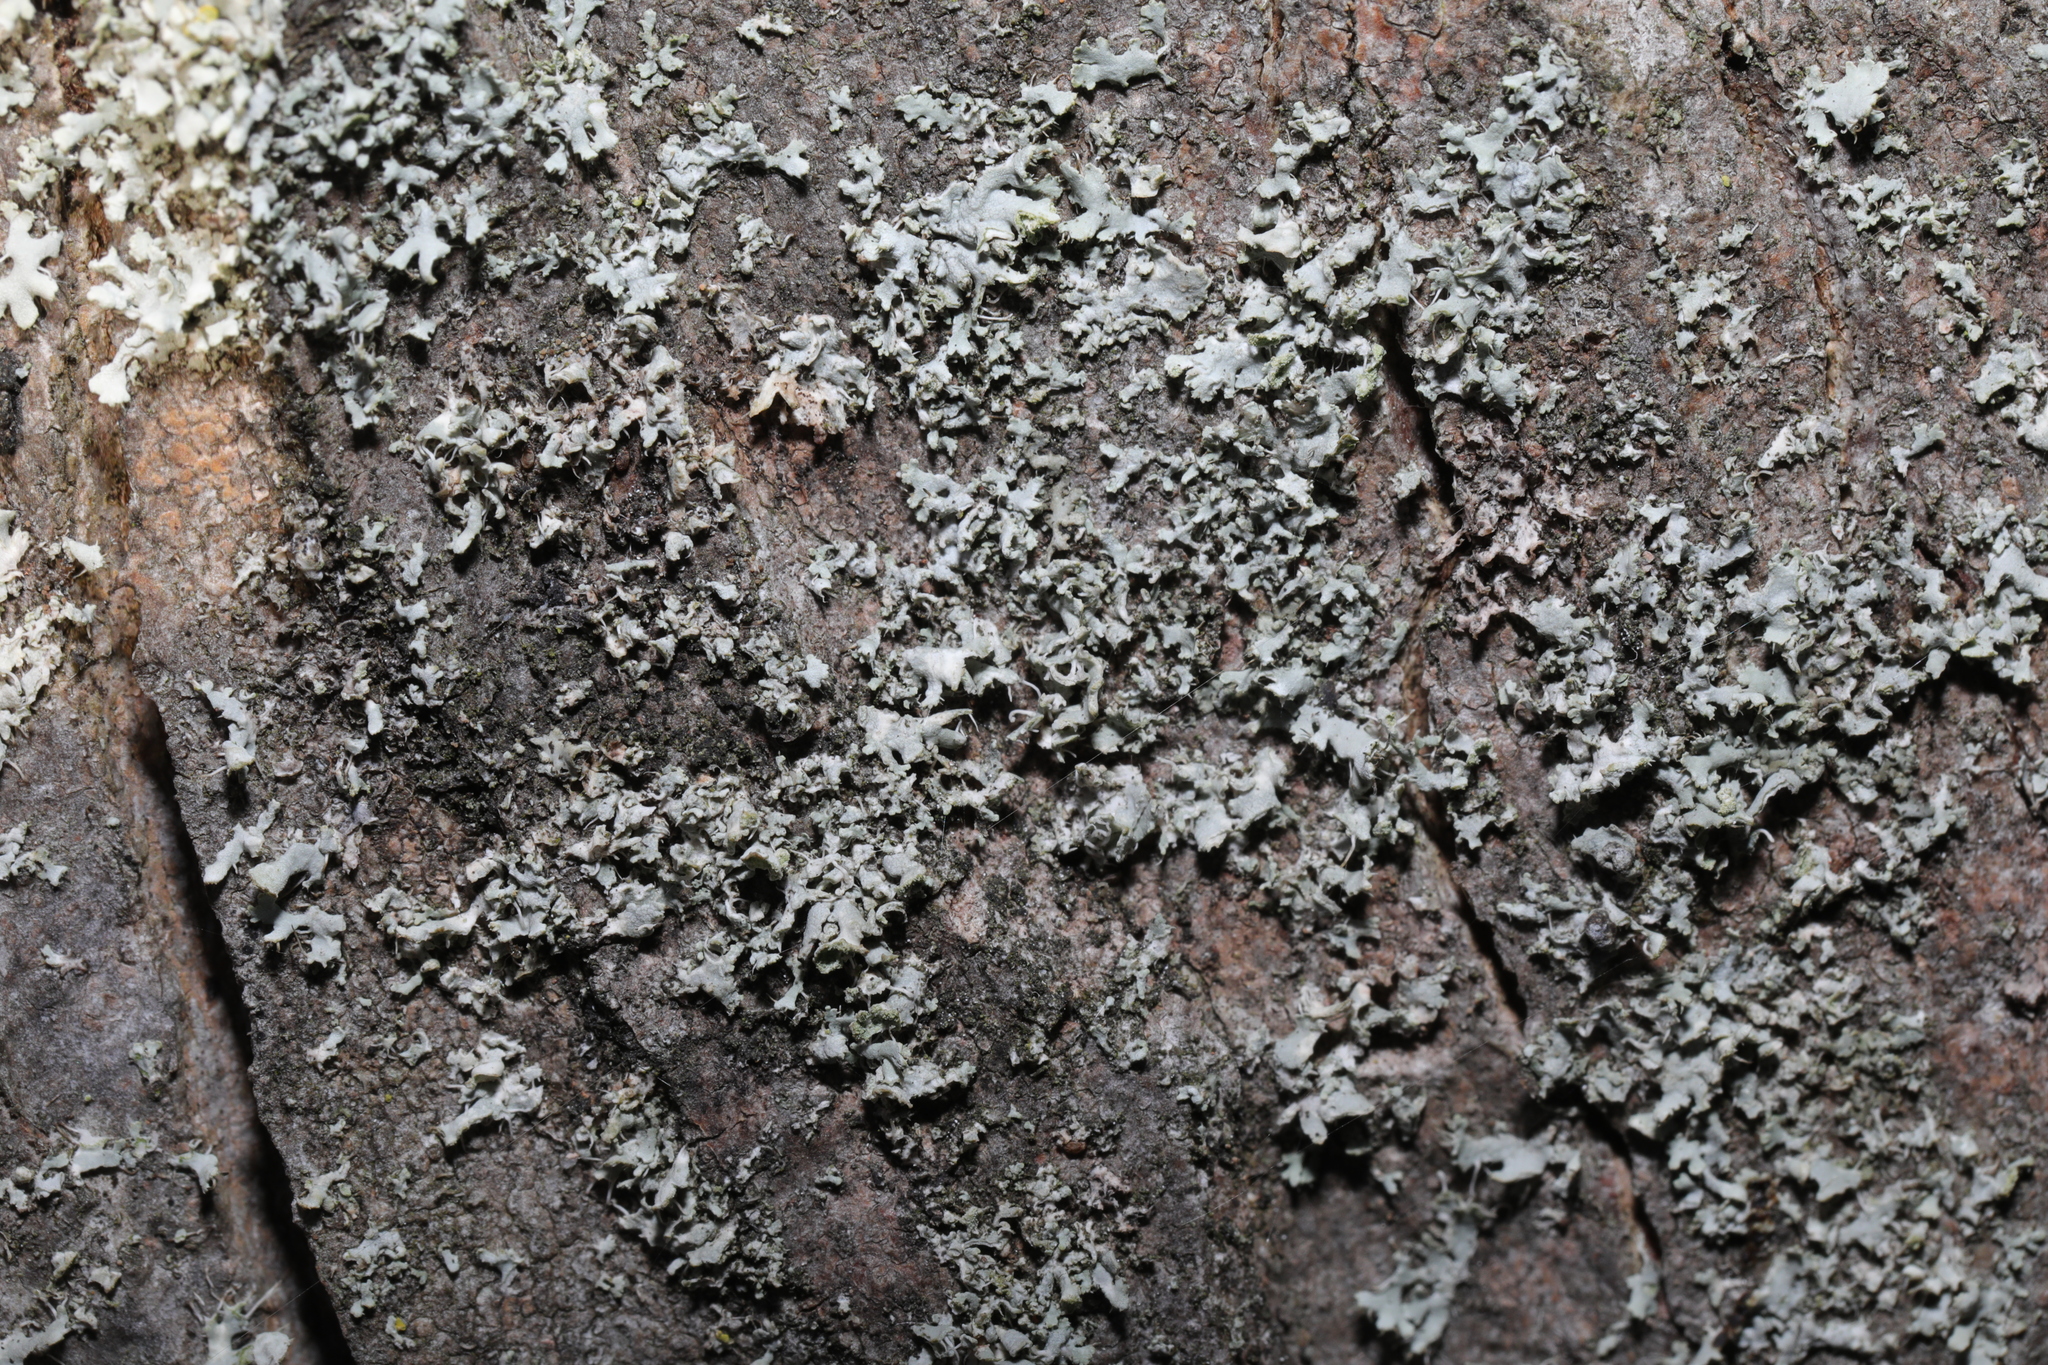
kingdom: Fungi
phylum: Ascomycota
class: Lecanoromycetes
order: Caliciales
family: Physciaceae
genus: Physcia
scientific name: Physcia adscendens
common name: Hooded rosette lichen
